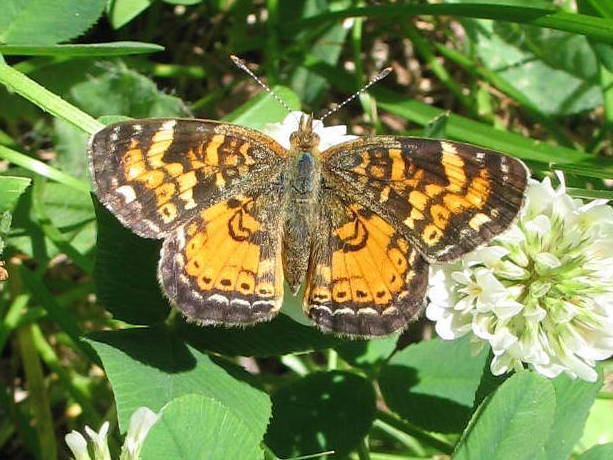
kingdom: Animalia
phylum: Arthropoda
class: Insecta
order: Lepidoptera
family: Nymphalidae
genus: Phyciodes
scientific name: Phyciodes tharos
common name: Pearl crescent
